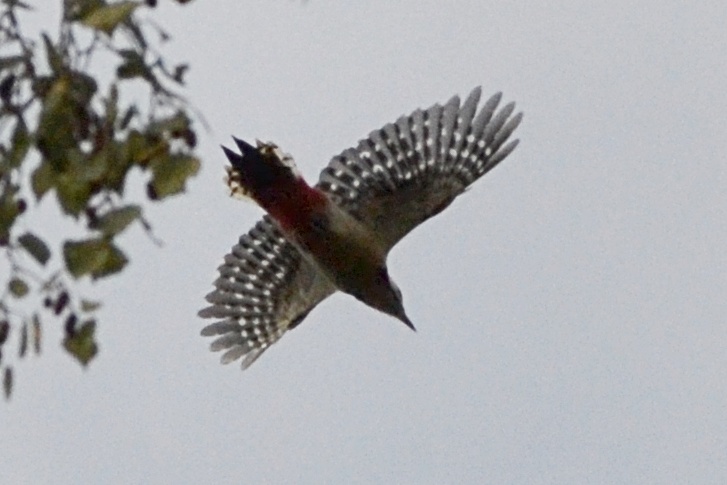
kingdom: Animalia
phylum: Chordata
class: Aves
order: Piciformes
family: Picidae
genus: Dendrocopos
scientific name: Dendrocopos major
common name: Great spotted woodpecker
